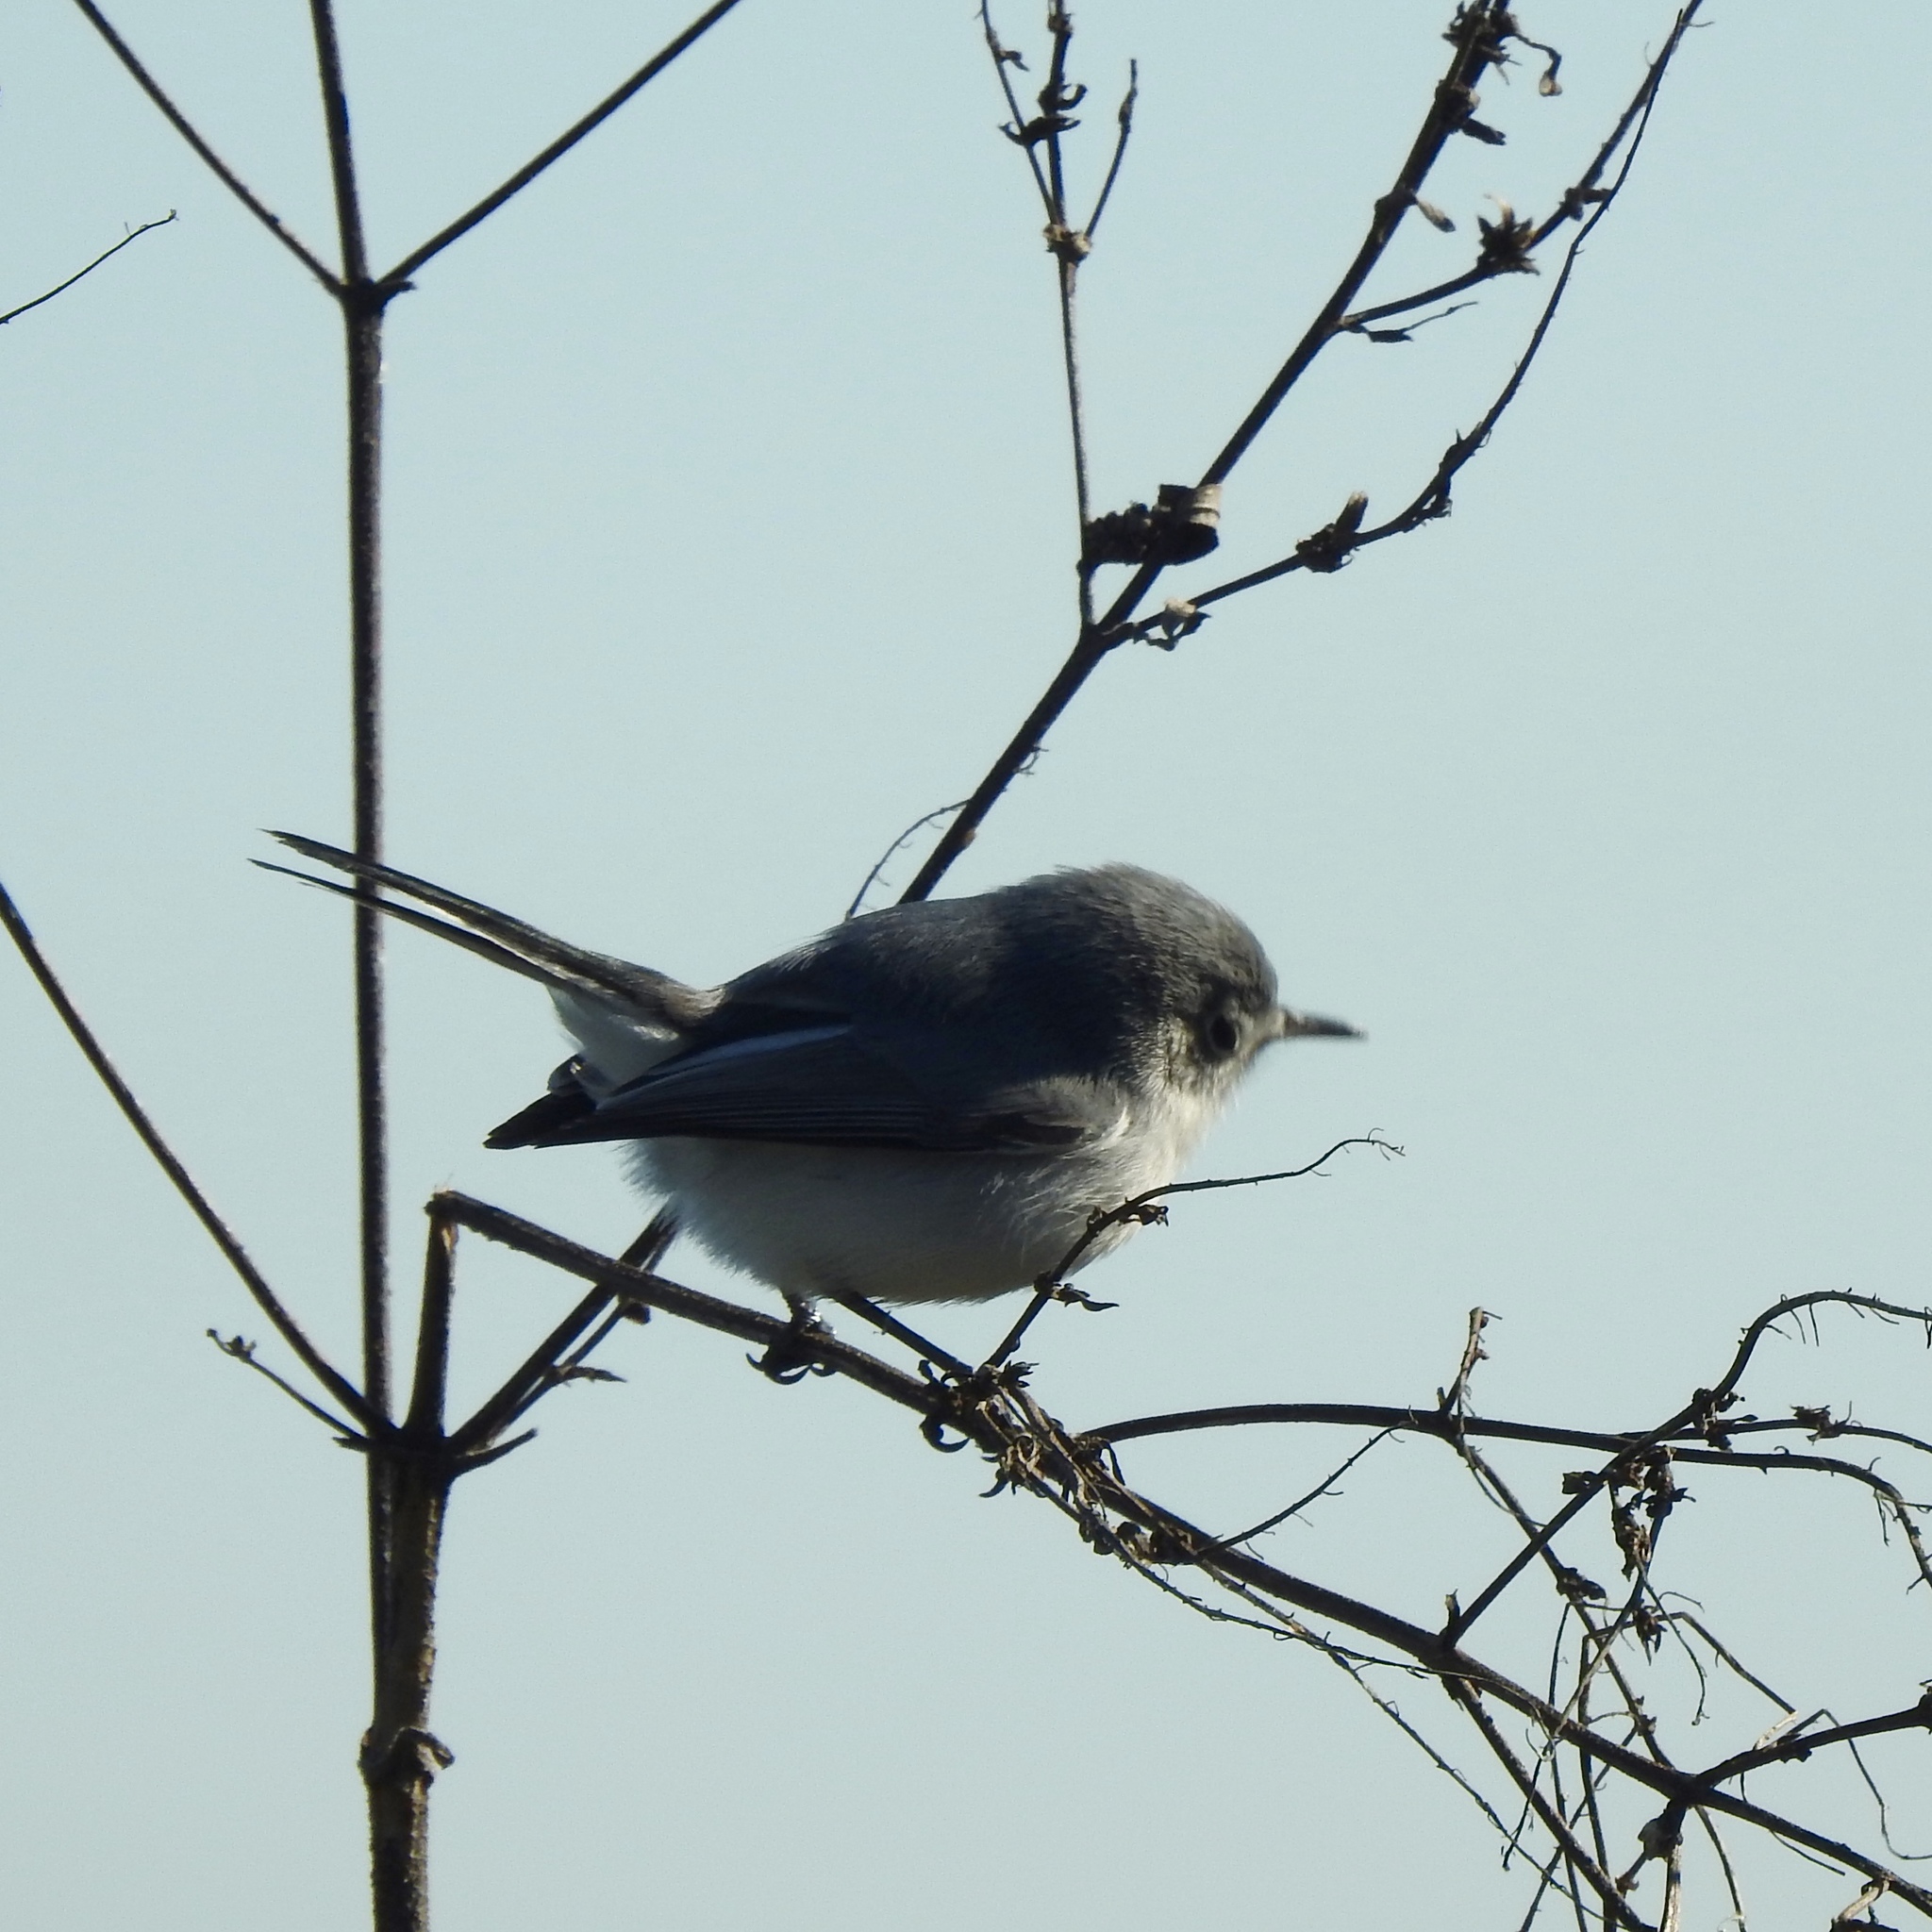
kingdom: Animalia
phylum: Chordata
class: Aves
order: Passeriformes
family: Polioptilidae
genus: Polioptila
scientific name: Polioptila caerulea
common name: Blue-gray gnatcatcher
